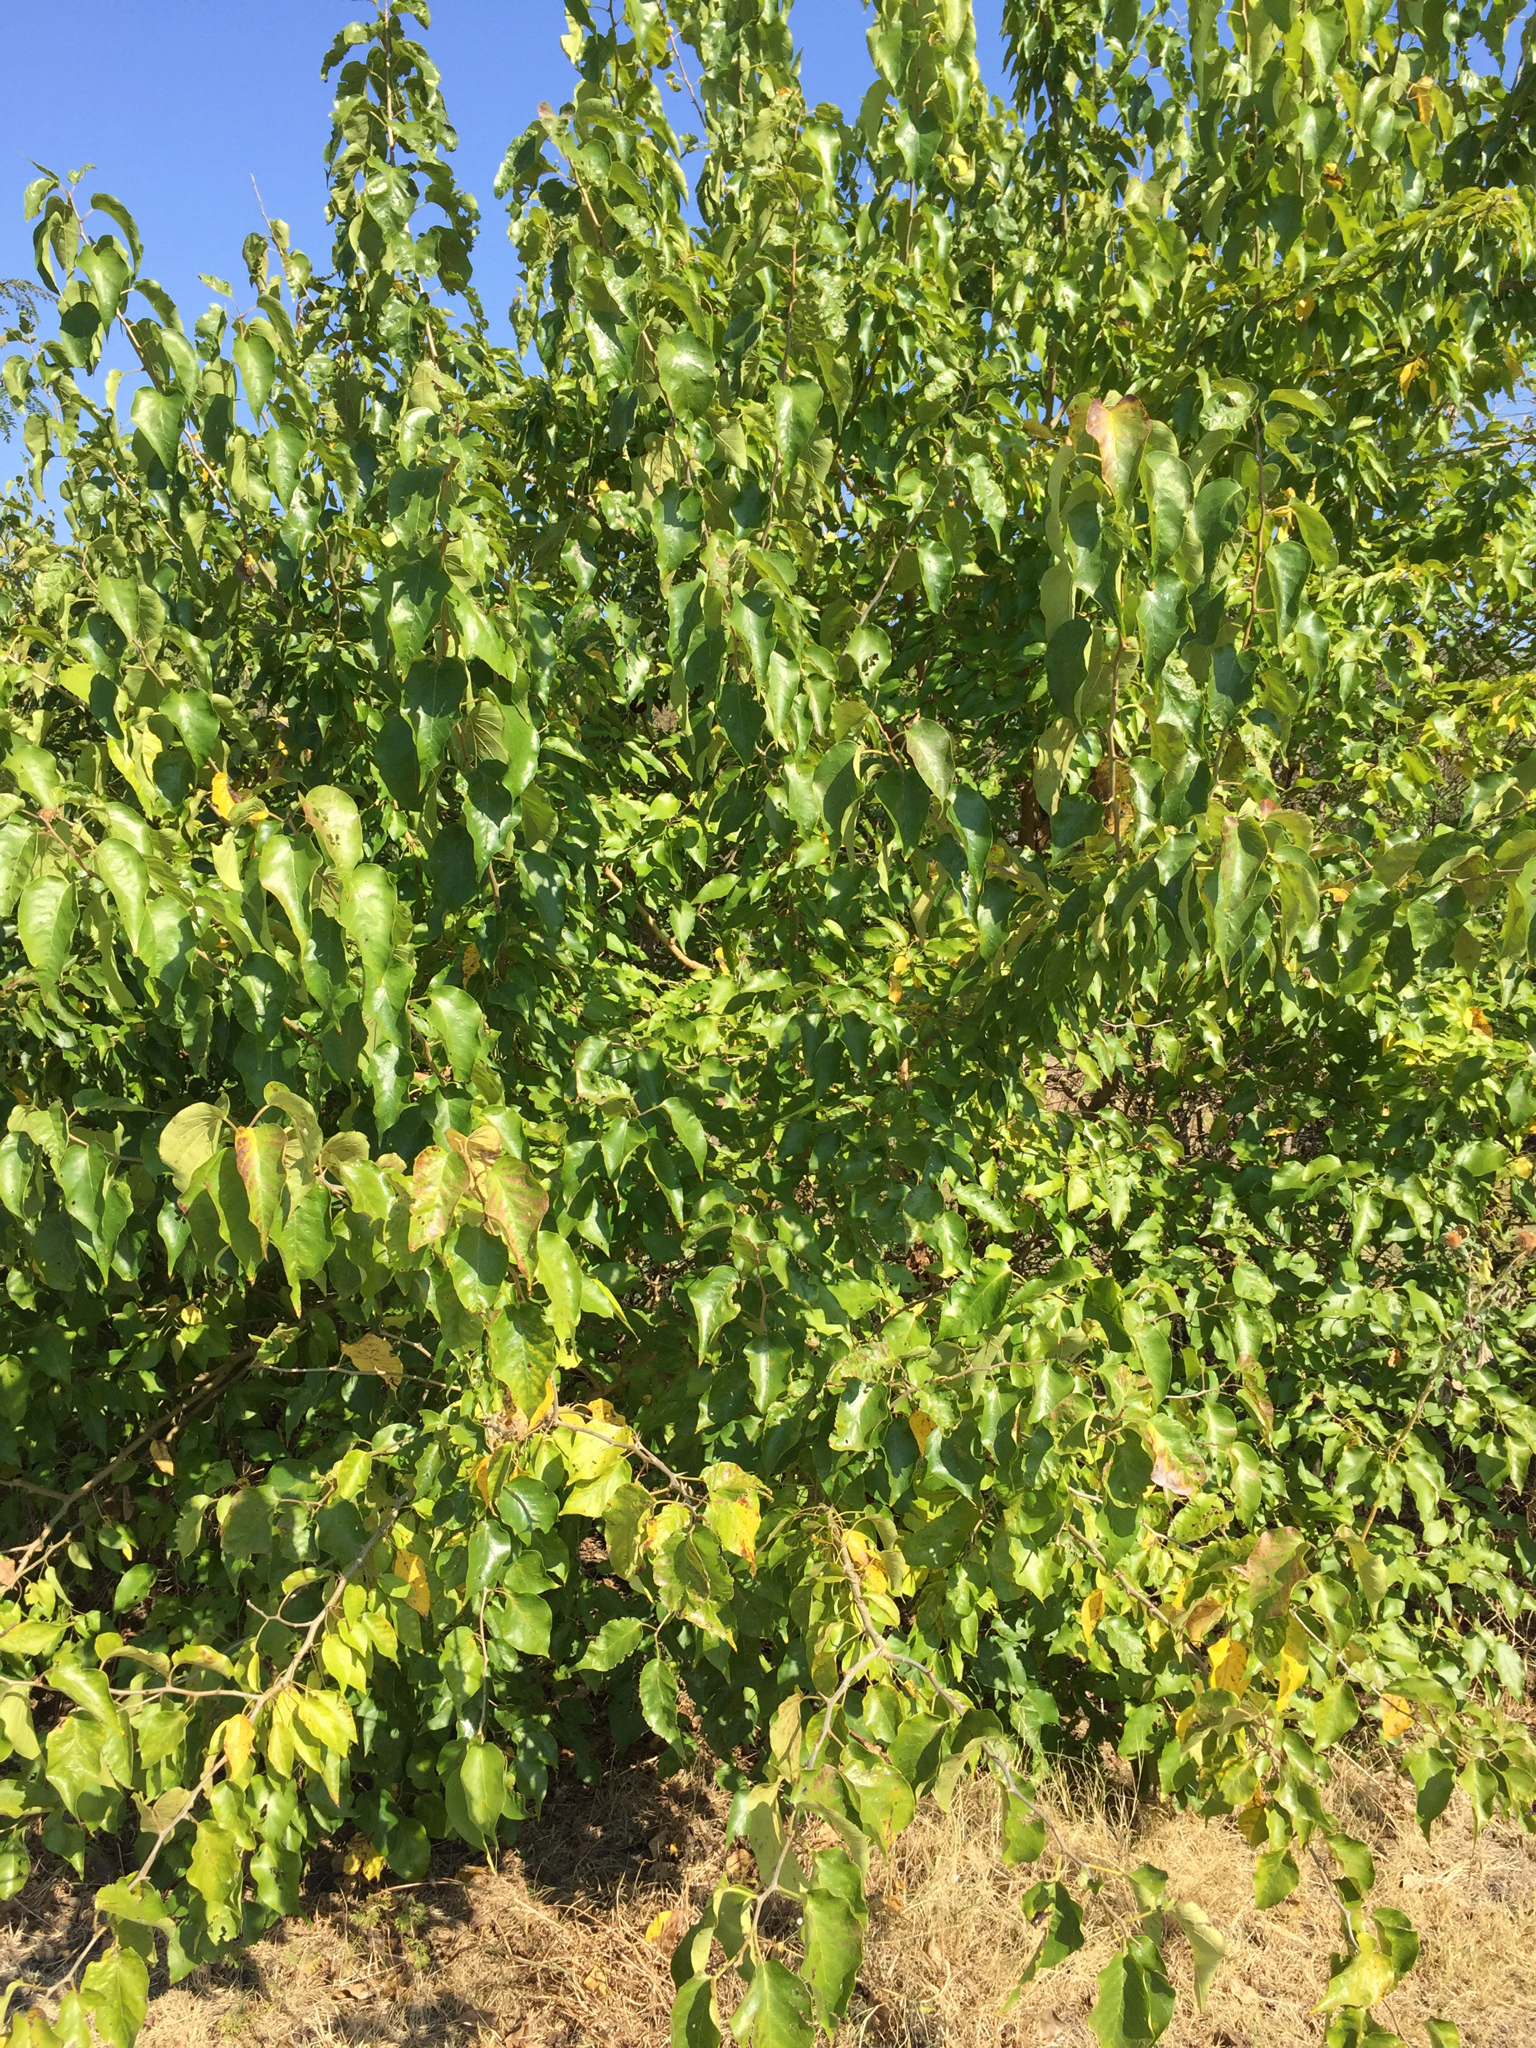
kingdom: Plantae
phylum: Tracheophyta
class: Magnoliopsida
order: Rosales
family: Moraceae
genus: Maclura
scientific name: Maclura pomifera
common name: Osage-orange
